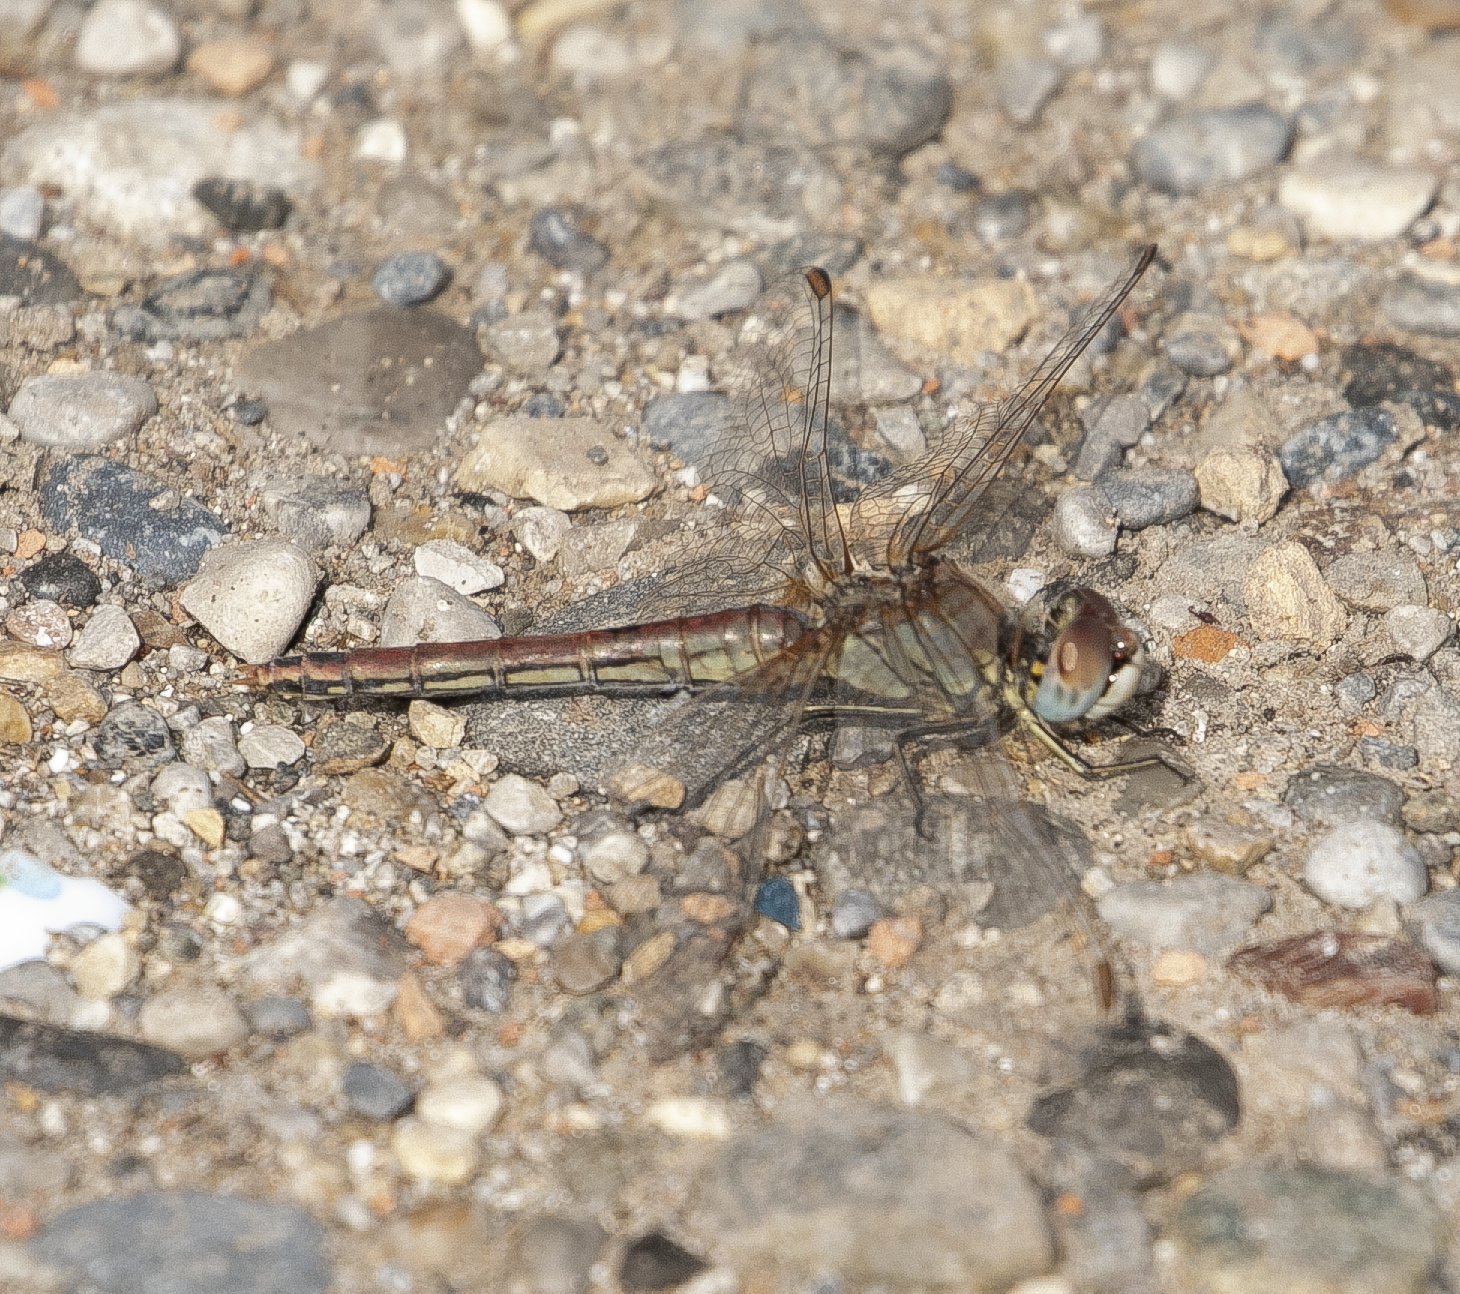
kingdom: Animalia
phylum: Arthropoda
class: Insecta
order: Odonata
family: Libellulidae
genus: Sympetrum
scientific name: Sympetrum fonscolombii
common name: Red-veined darter
